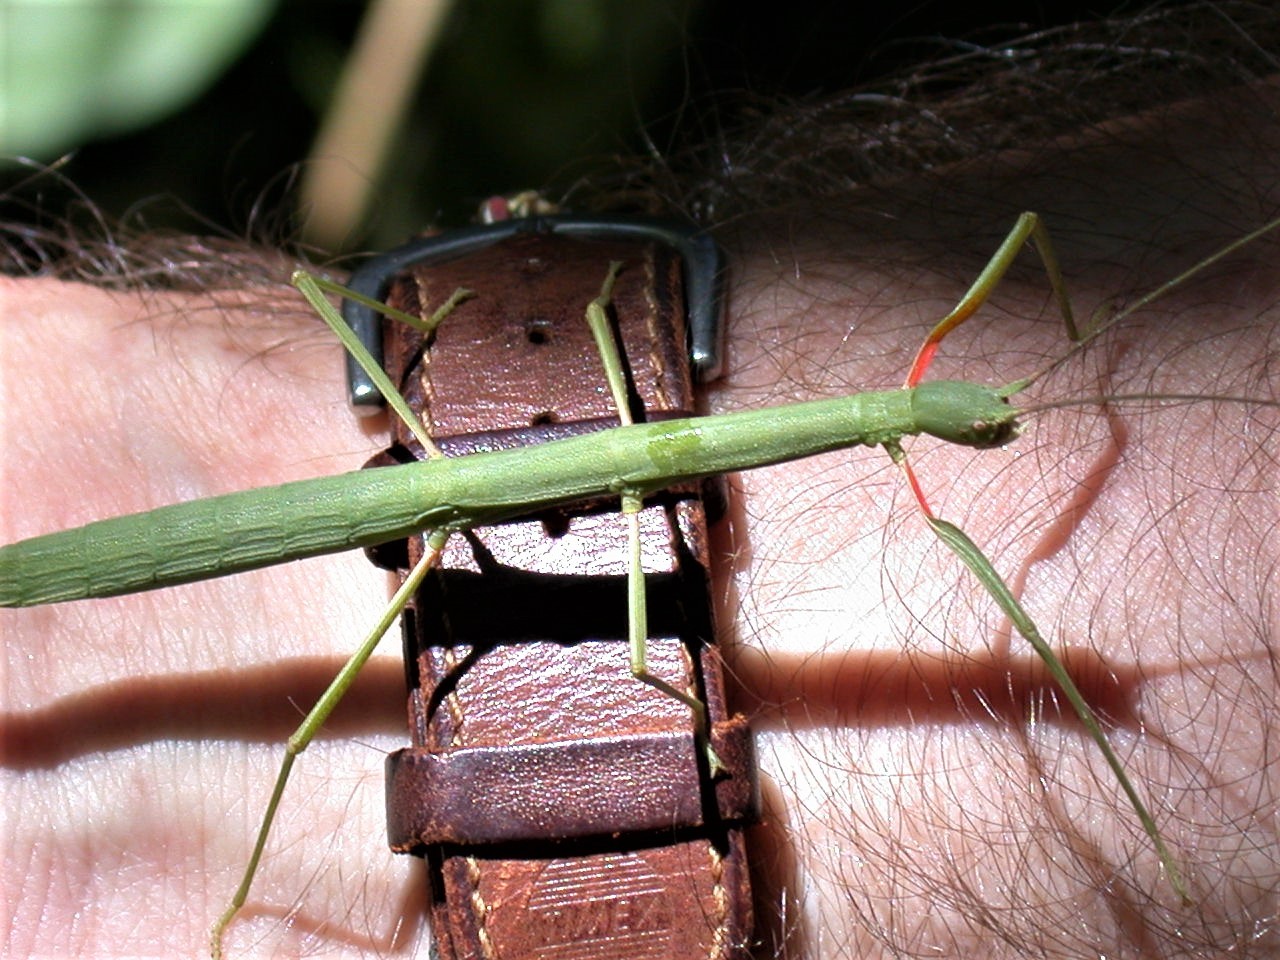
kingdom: Animalia
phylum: Arthropoda
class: Insecta
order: Phasmida
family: Heteronemiidae
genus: Canuleius
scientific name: Canuleius
